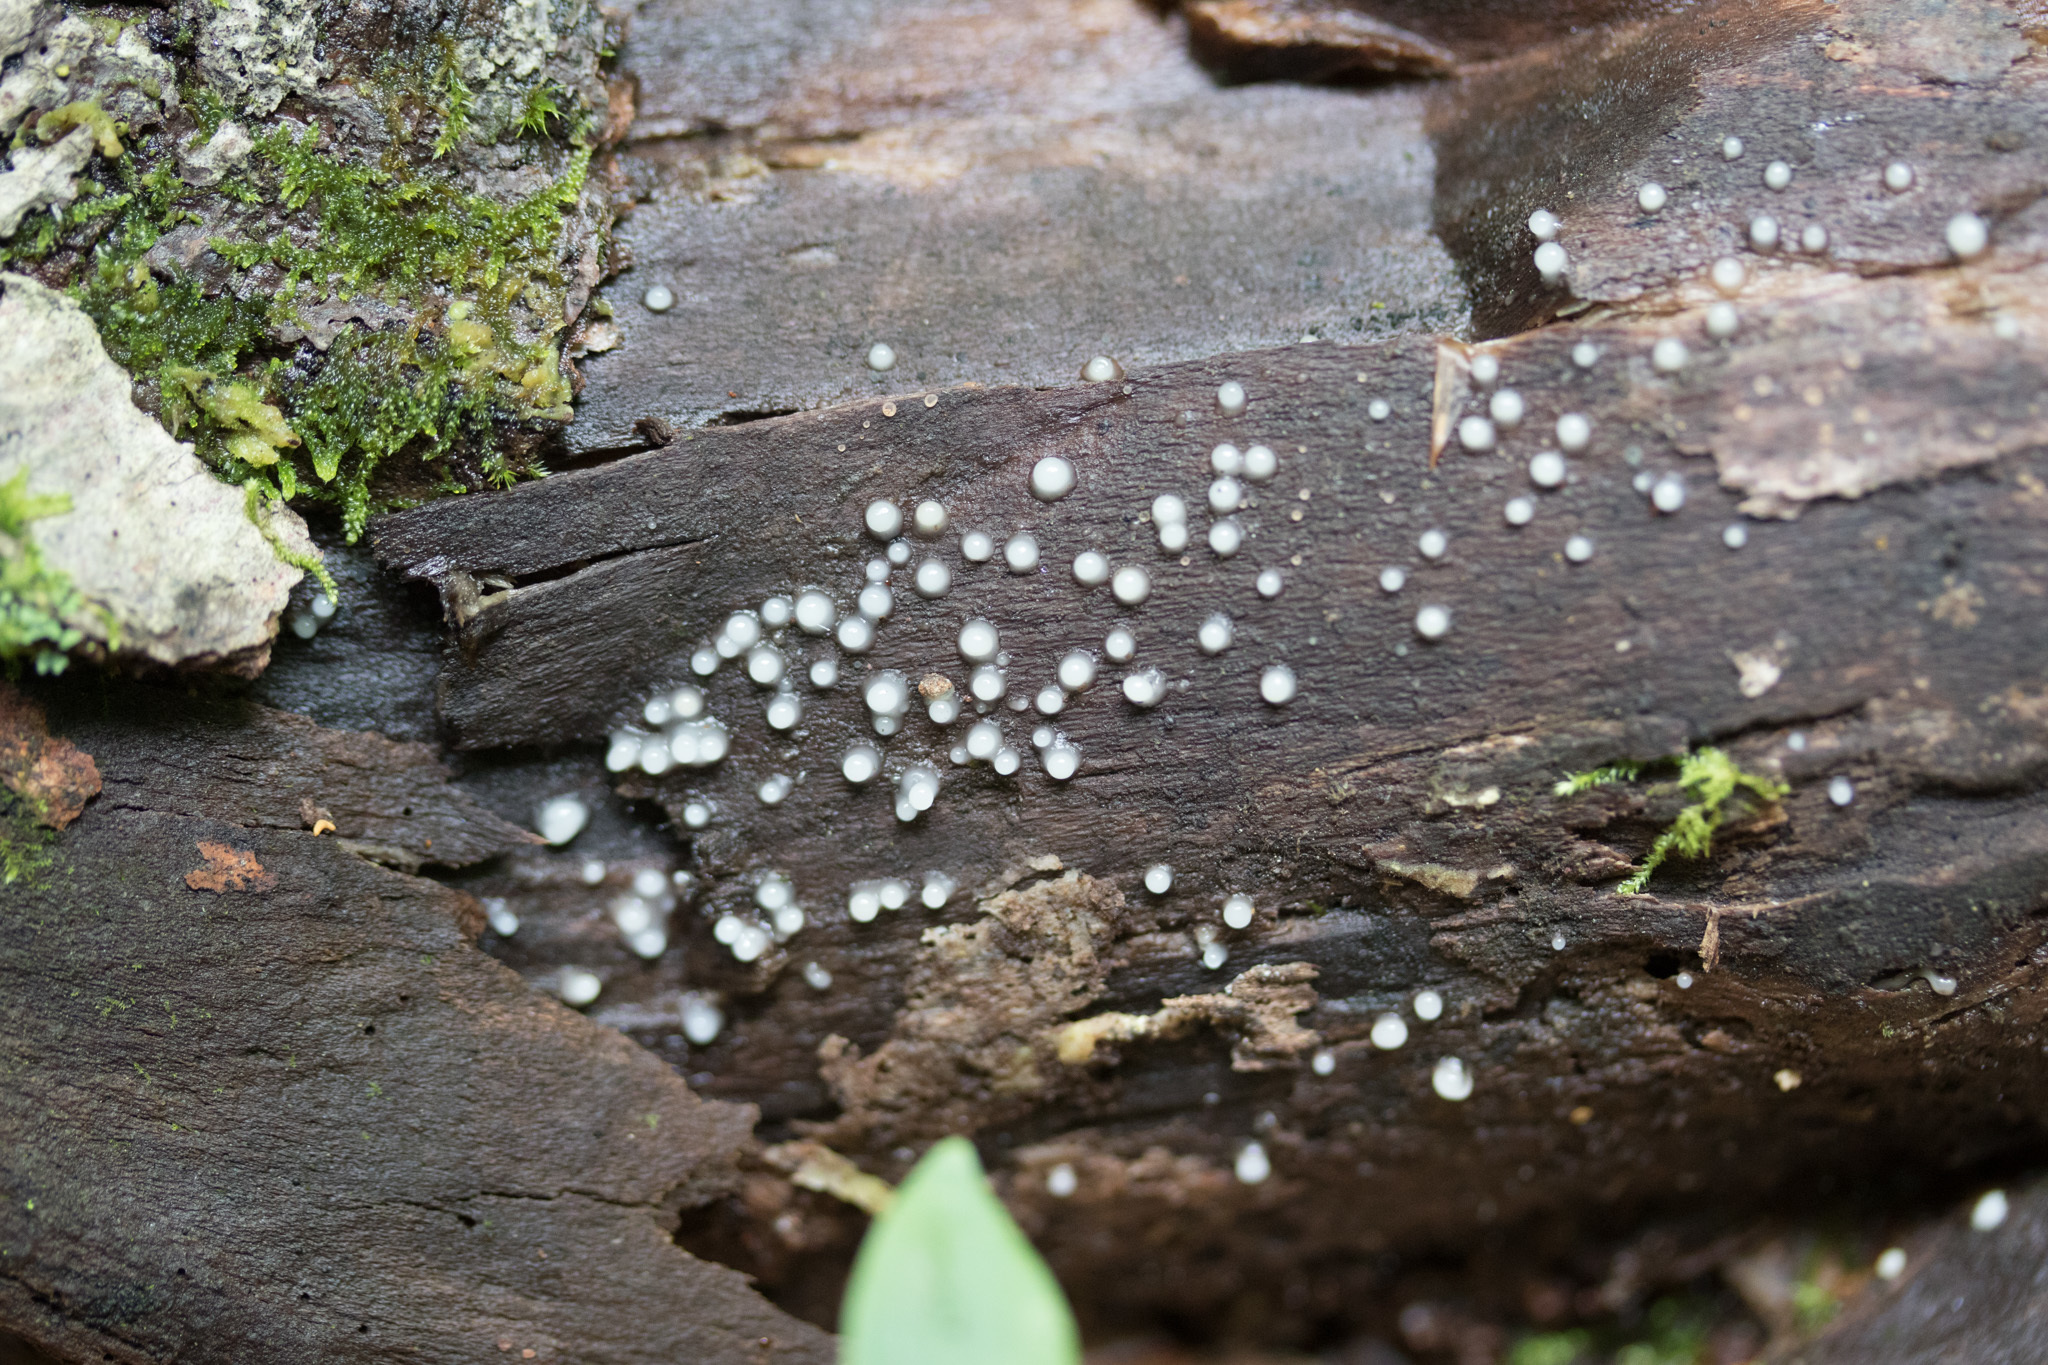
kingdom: Fungi
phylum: Basidiomycota
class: Atractiellomycetes
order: Atractiellales
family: Phleogenaceae
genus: Helicogloea
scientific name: Helicogloea compressa
